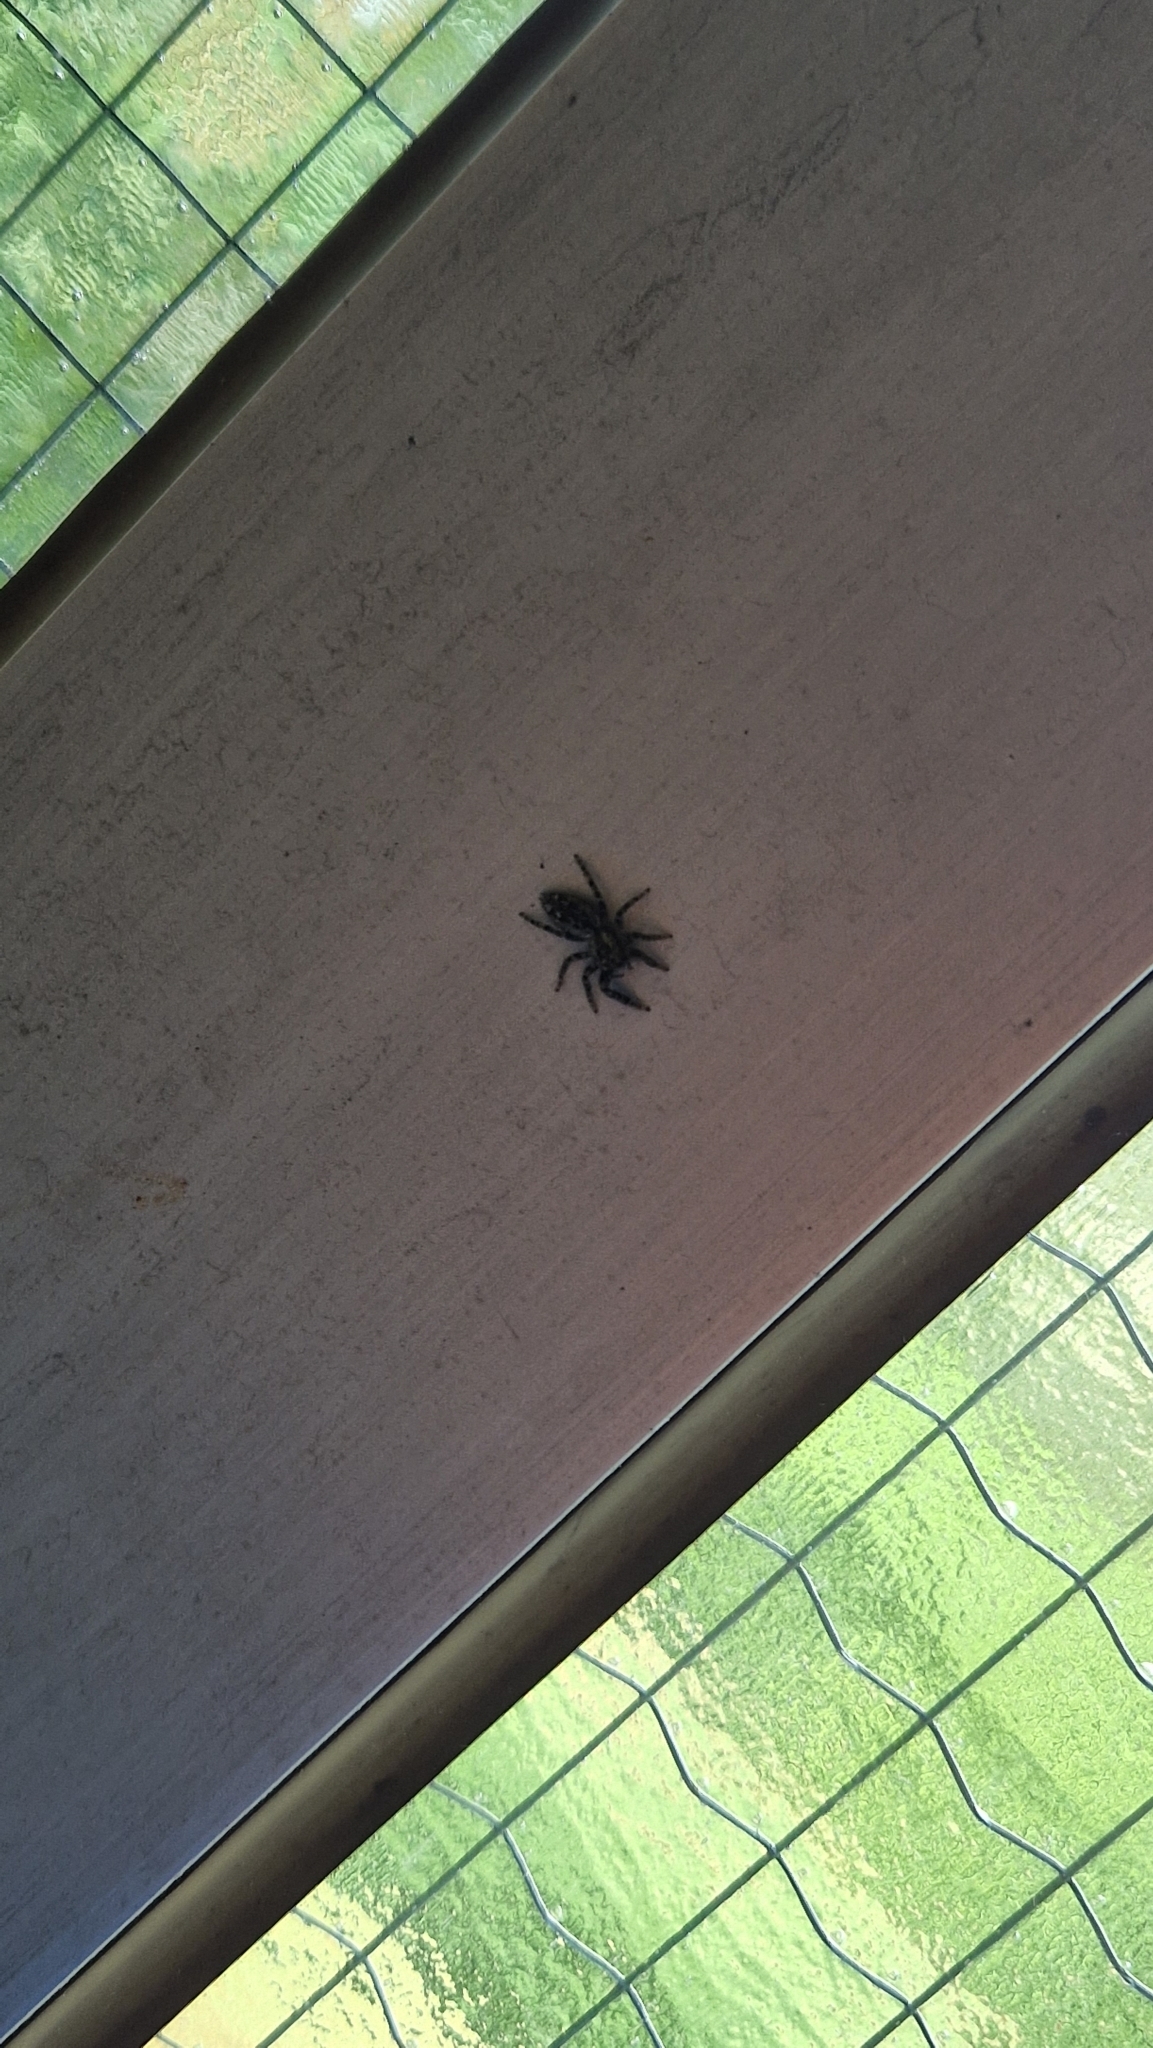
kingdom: Animalia
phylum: Arthropoda
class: Arachnida
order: Araneae
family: Salticidae
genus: Marpissa
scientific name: Marpissa muscosa
